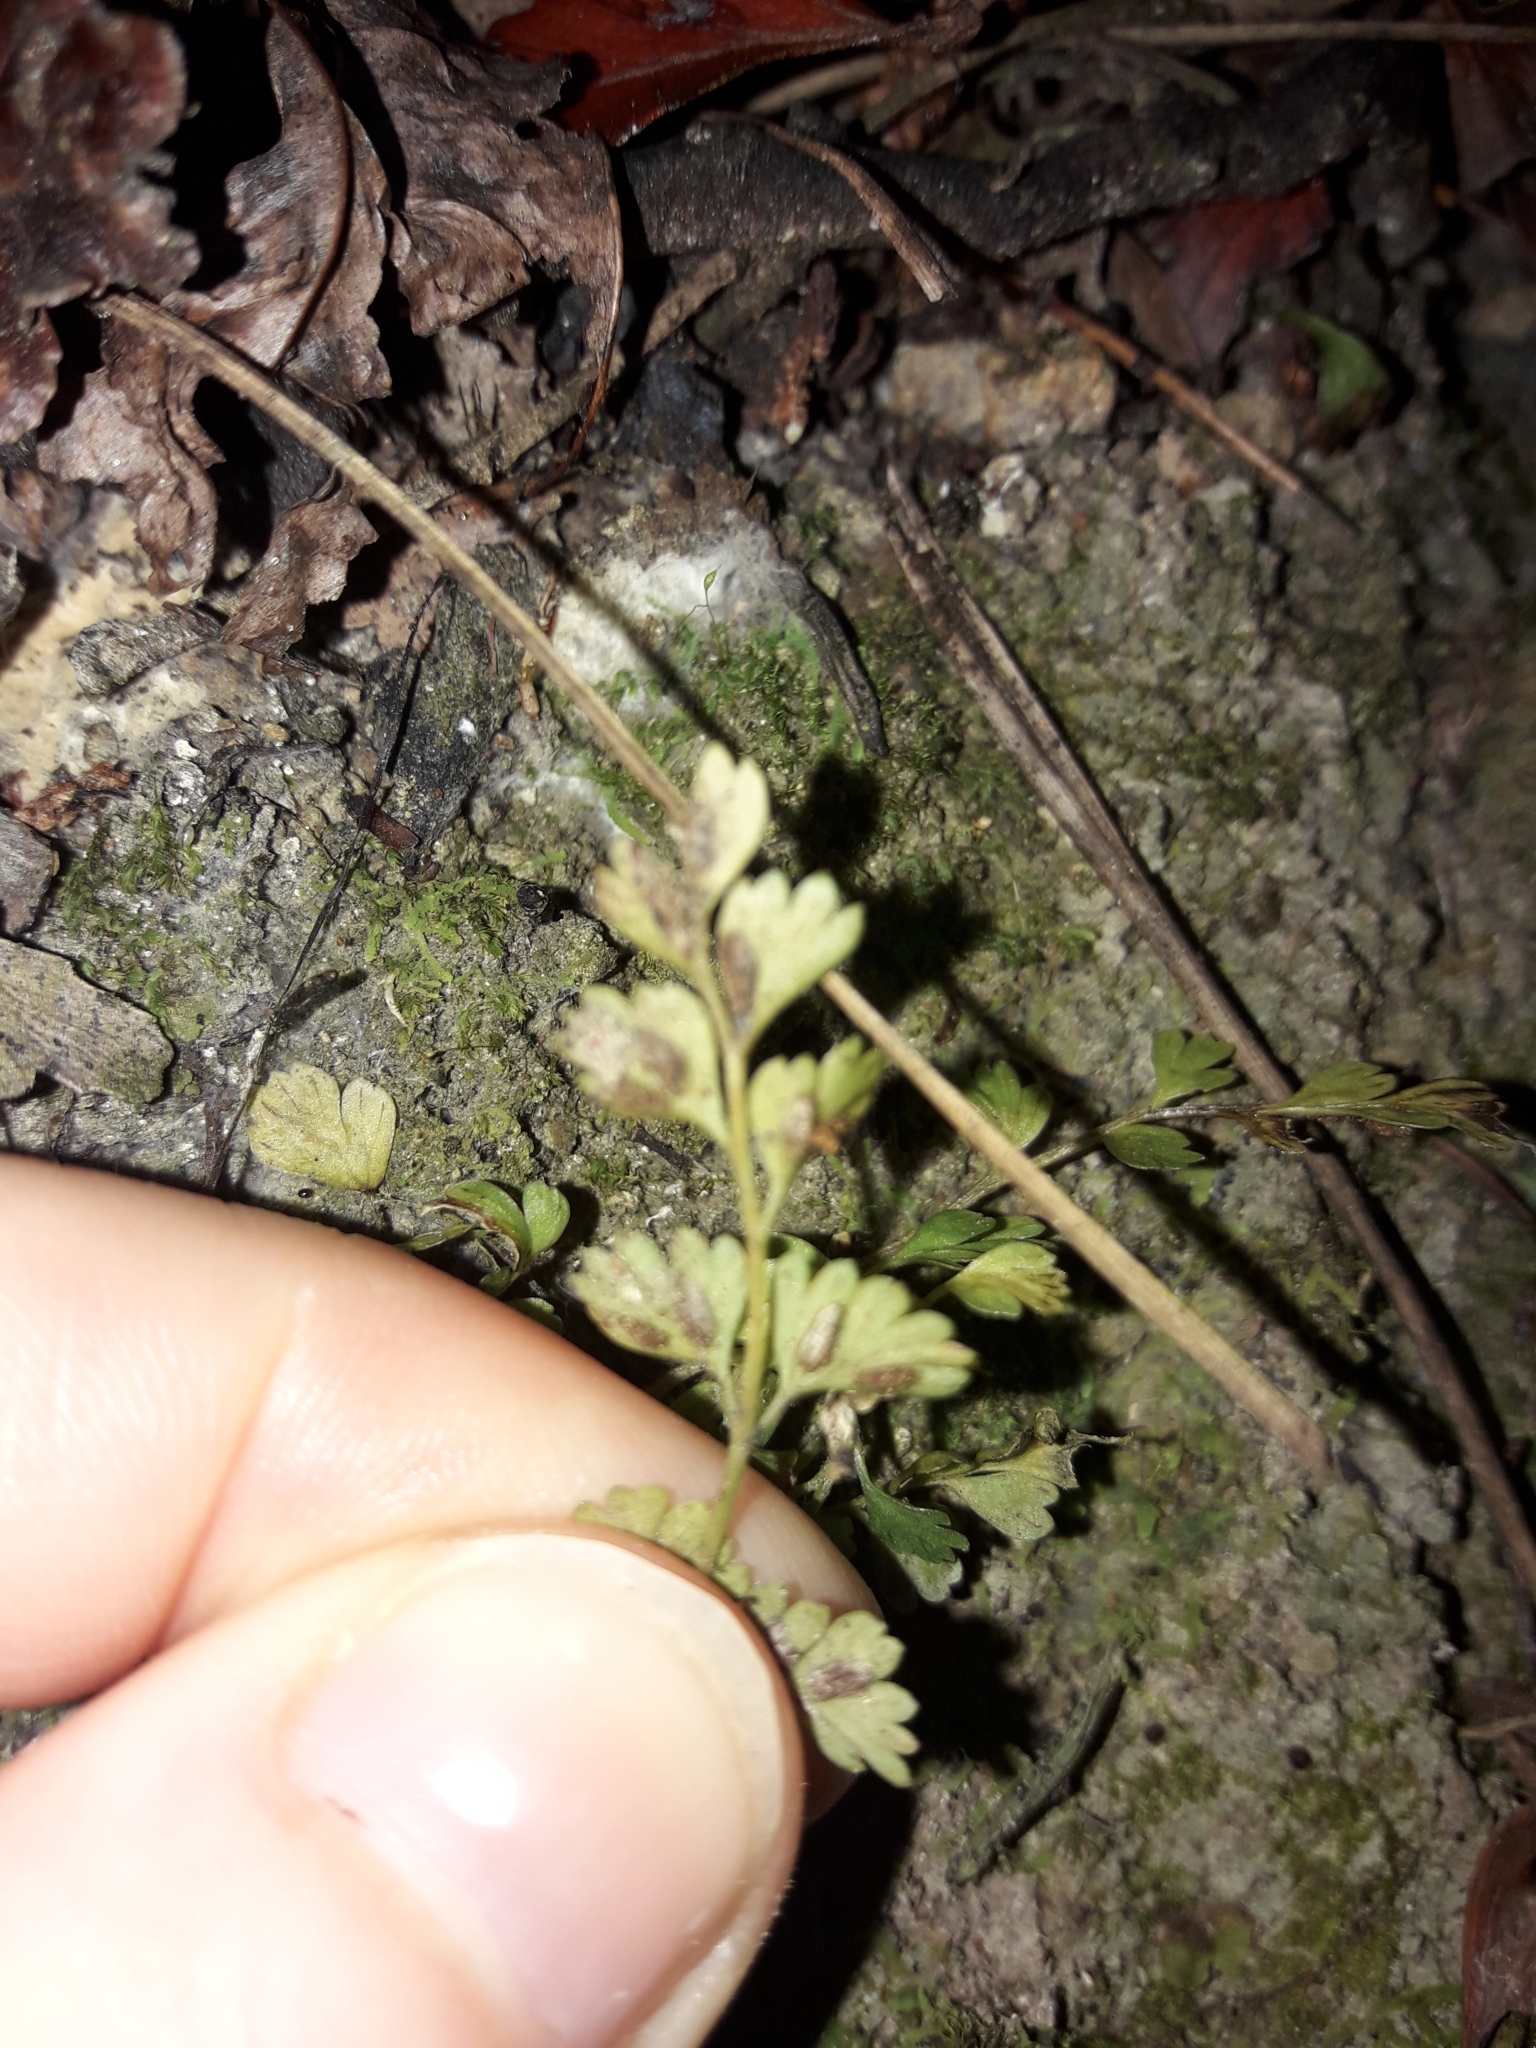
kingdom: Plantae
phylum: Tracheophyta
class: Polypodiopsida
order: Polypodiales
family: Aspleniaceae
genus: Asplenium
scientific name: Asplenium hookerianum
